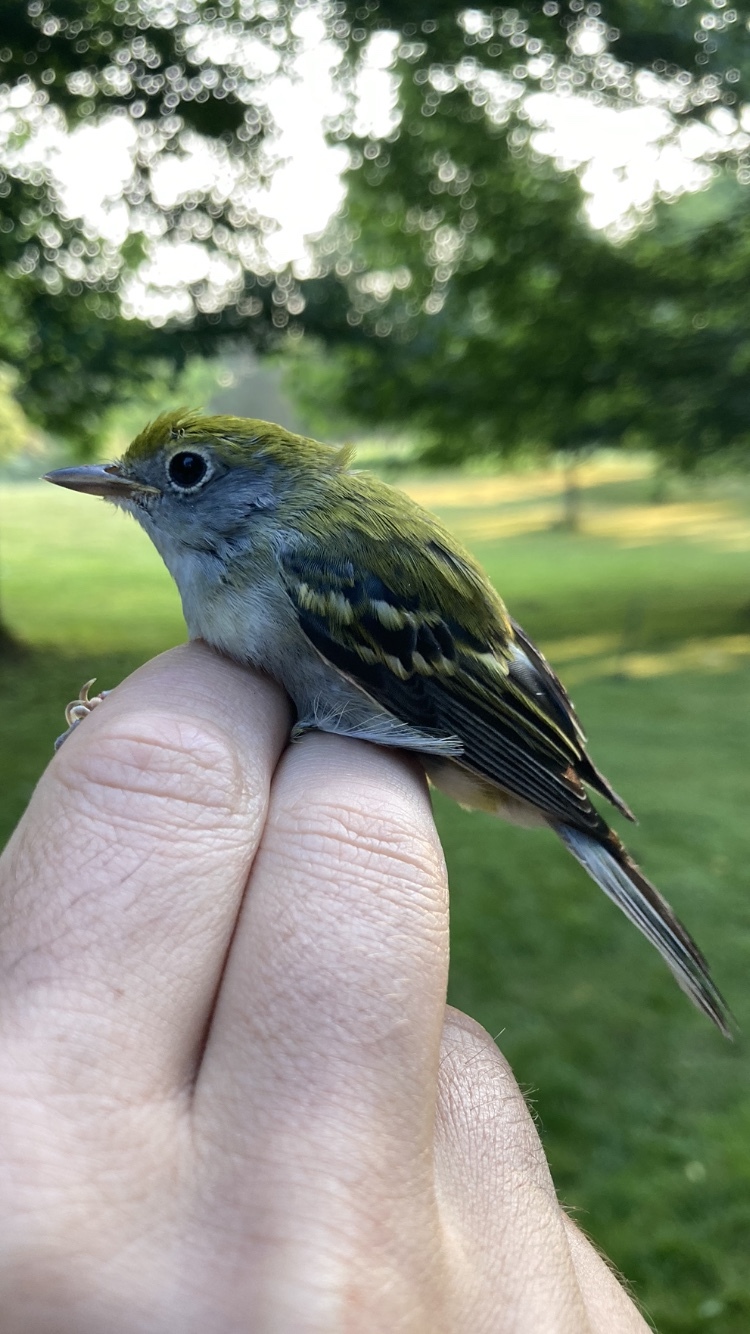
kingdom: Animalia
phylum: Chordata
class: Aves
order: Passeriformes
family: Parulidae
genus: Setophaga
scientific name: Setophaga pensylvanica
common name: Chestnut-sided warbler
